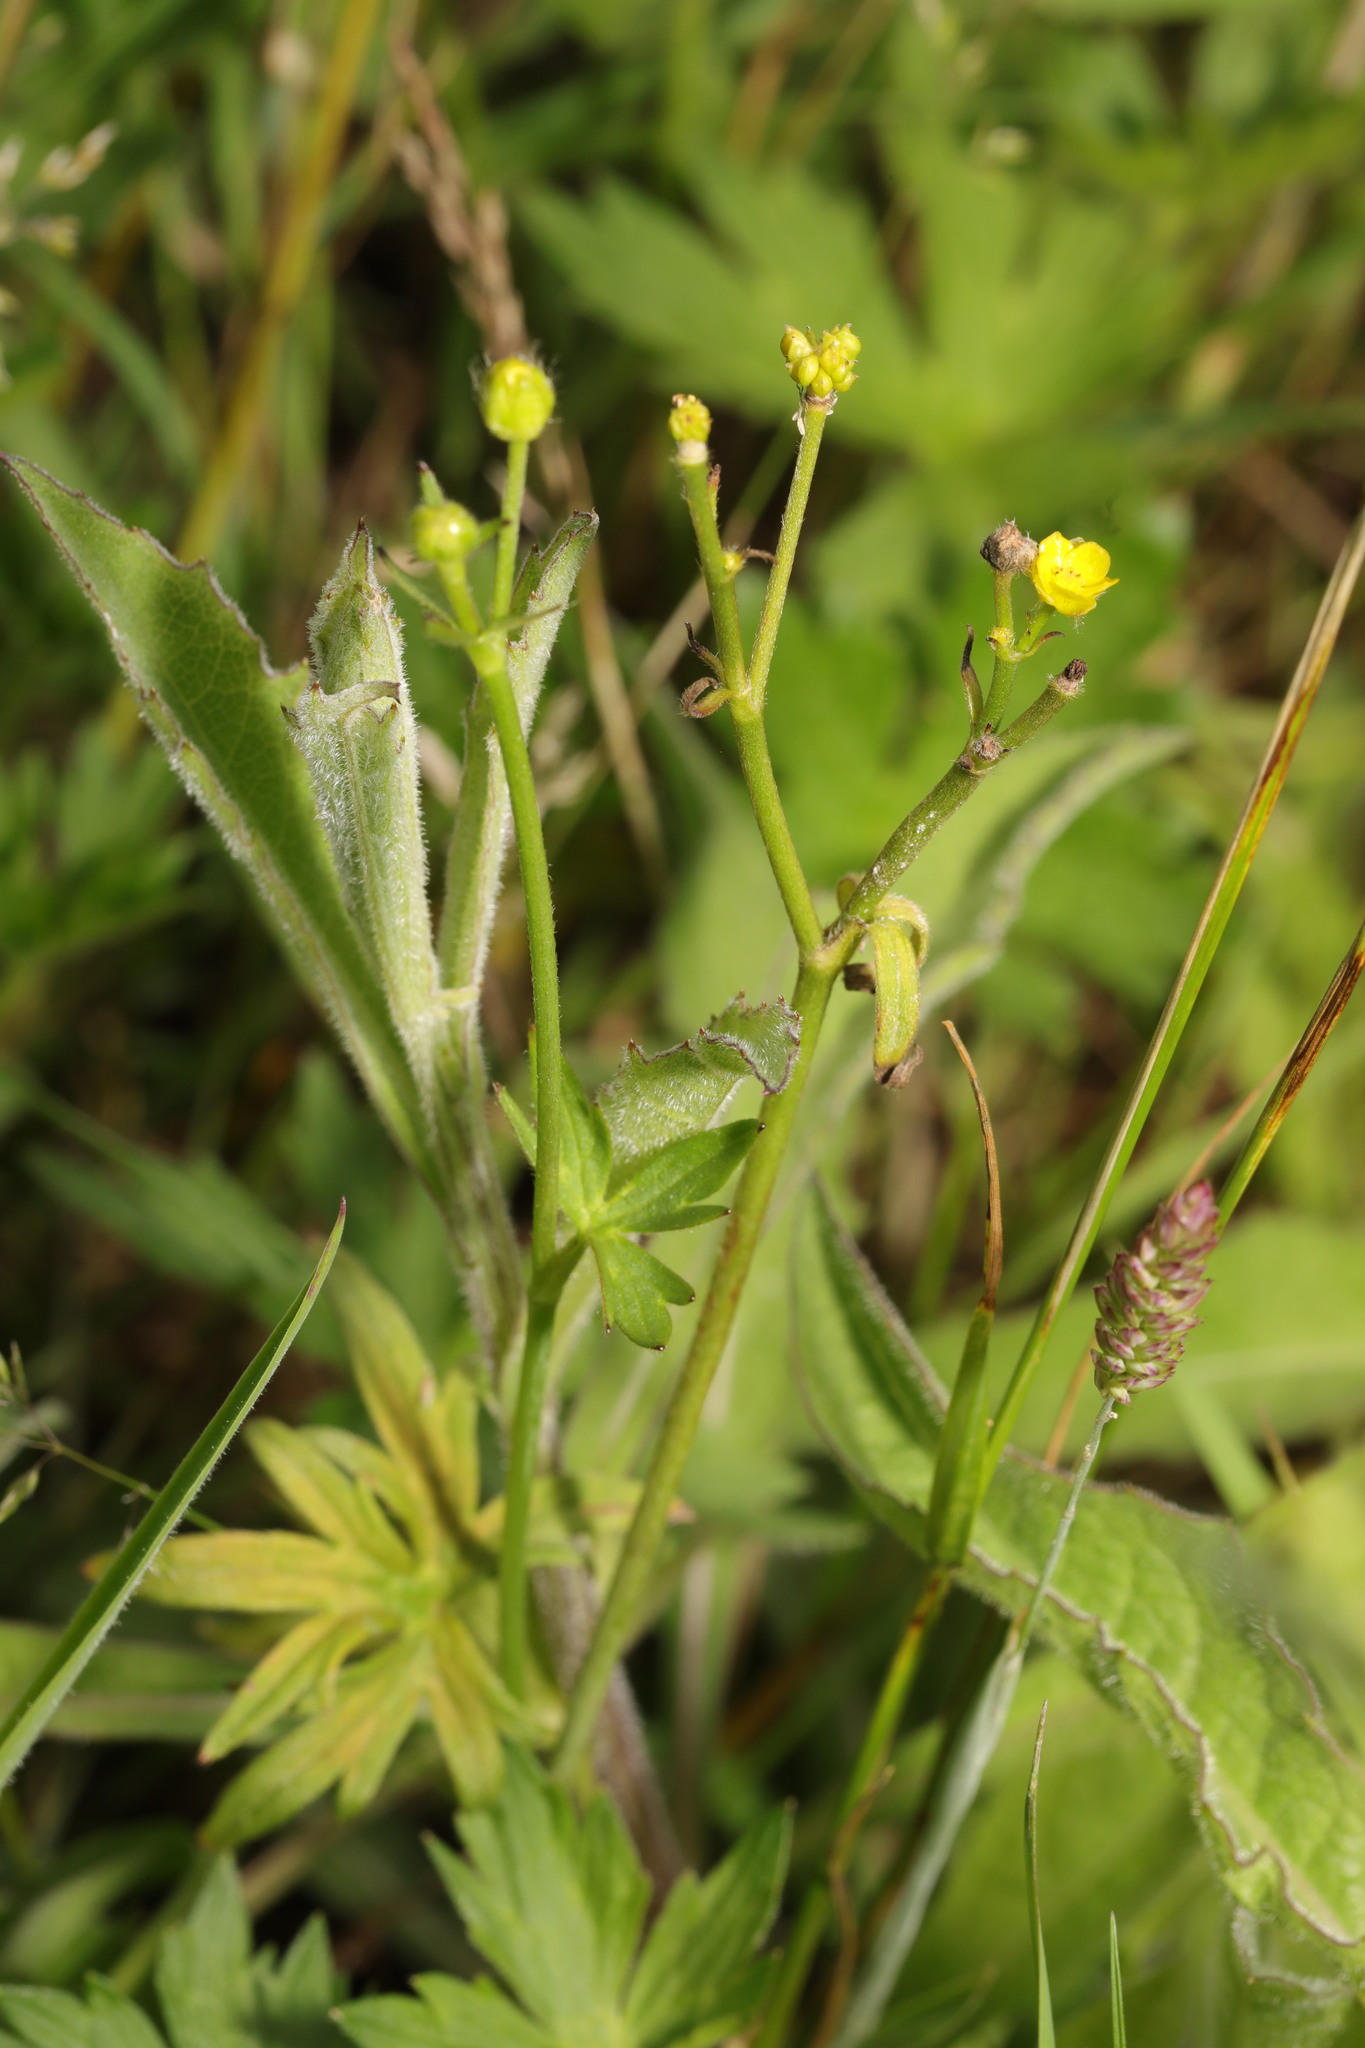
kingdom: Plantae
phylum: Tracheophyta
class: Magnoliopsida
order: Ranunculales
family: Ranunculaceae
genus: Ranunculus
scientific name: Ranunculus acris
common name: Meadow buttercup
